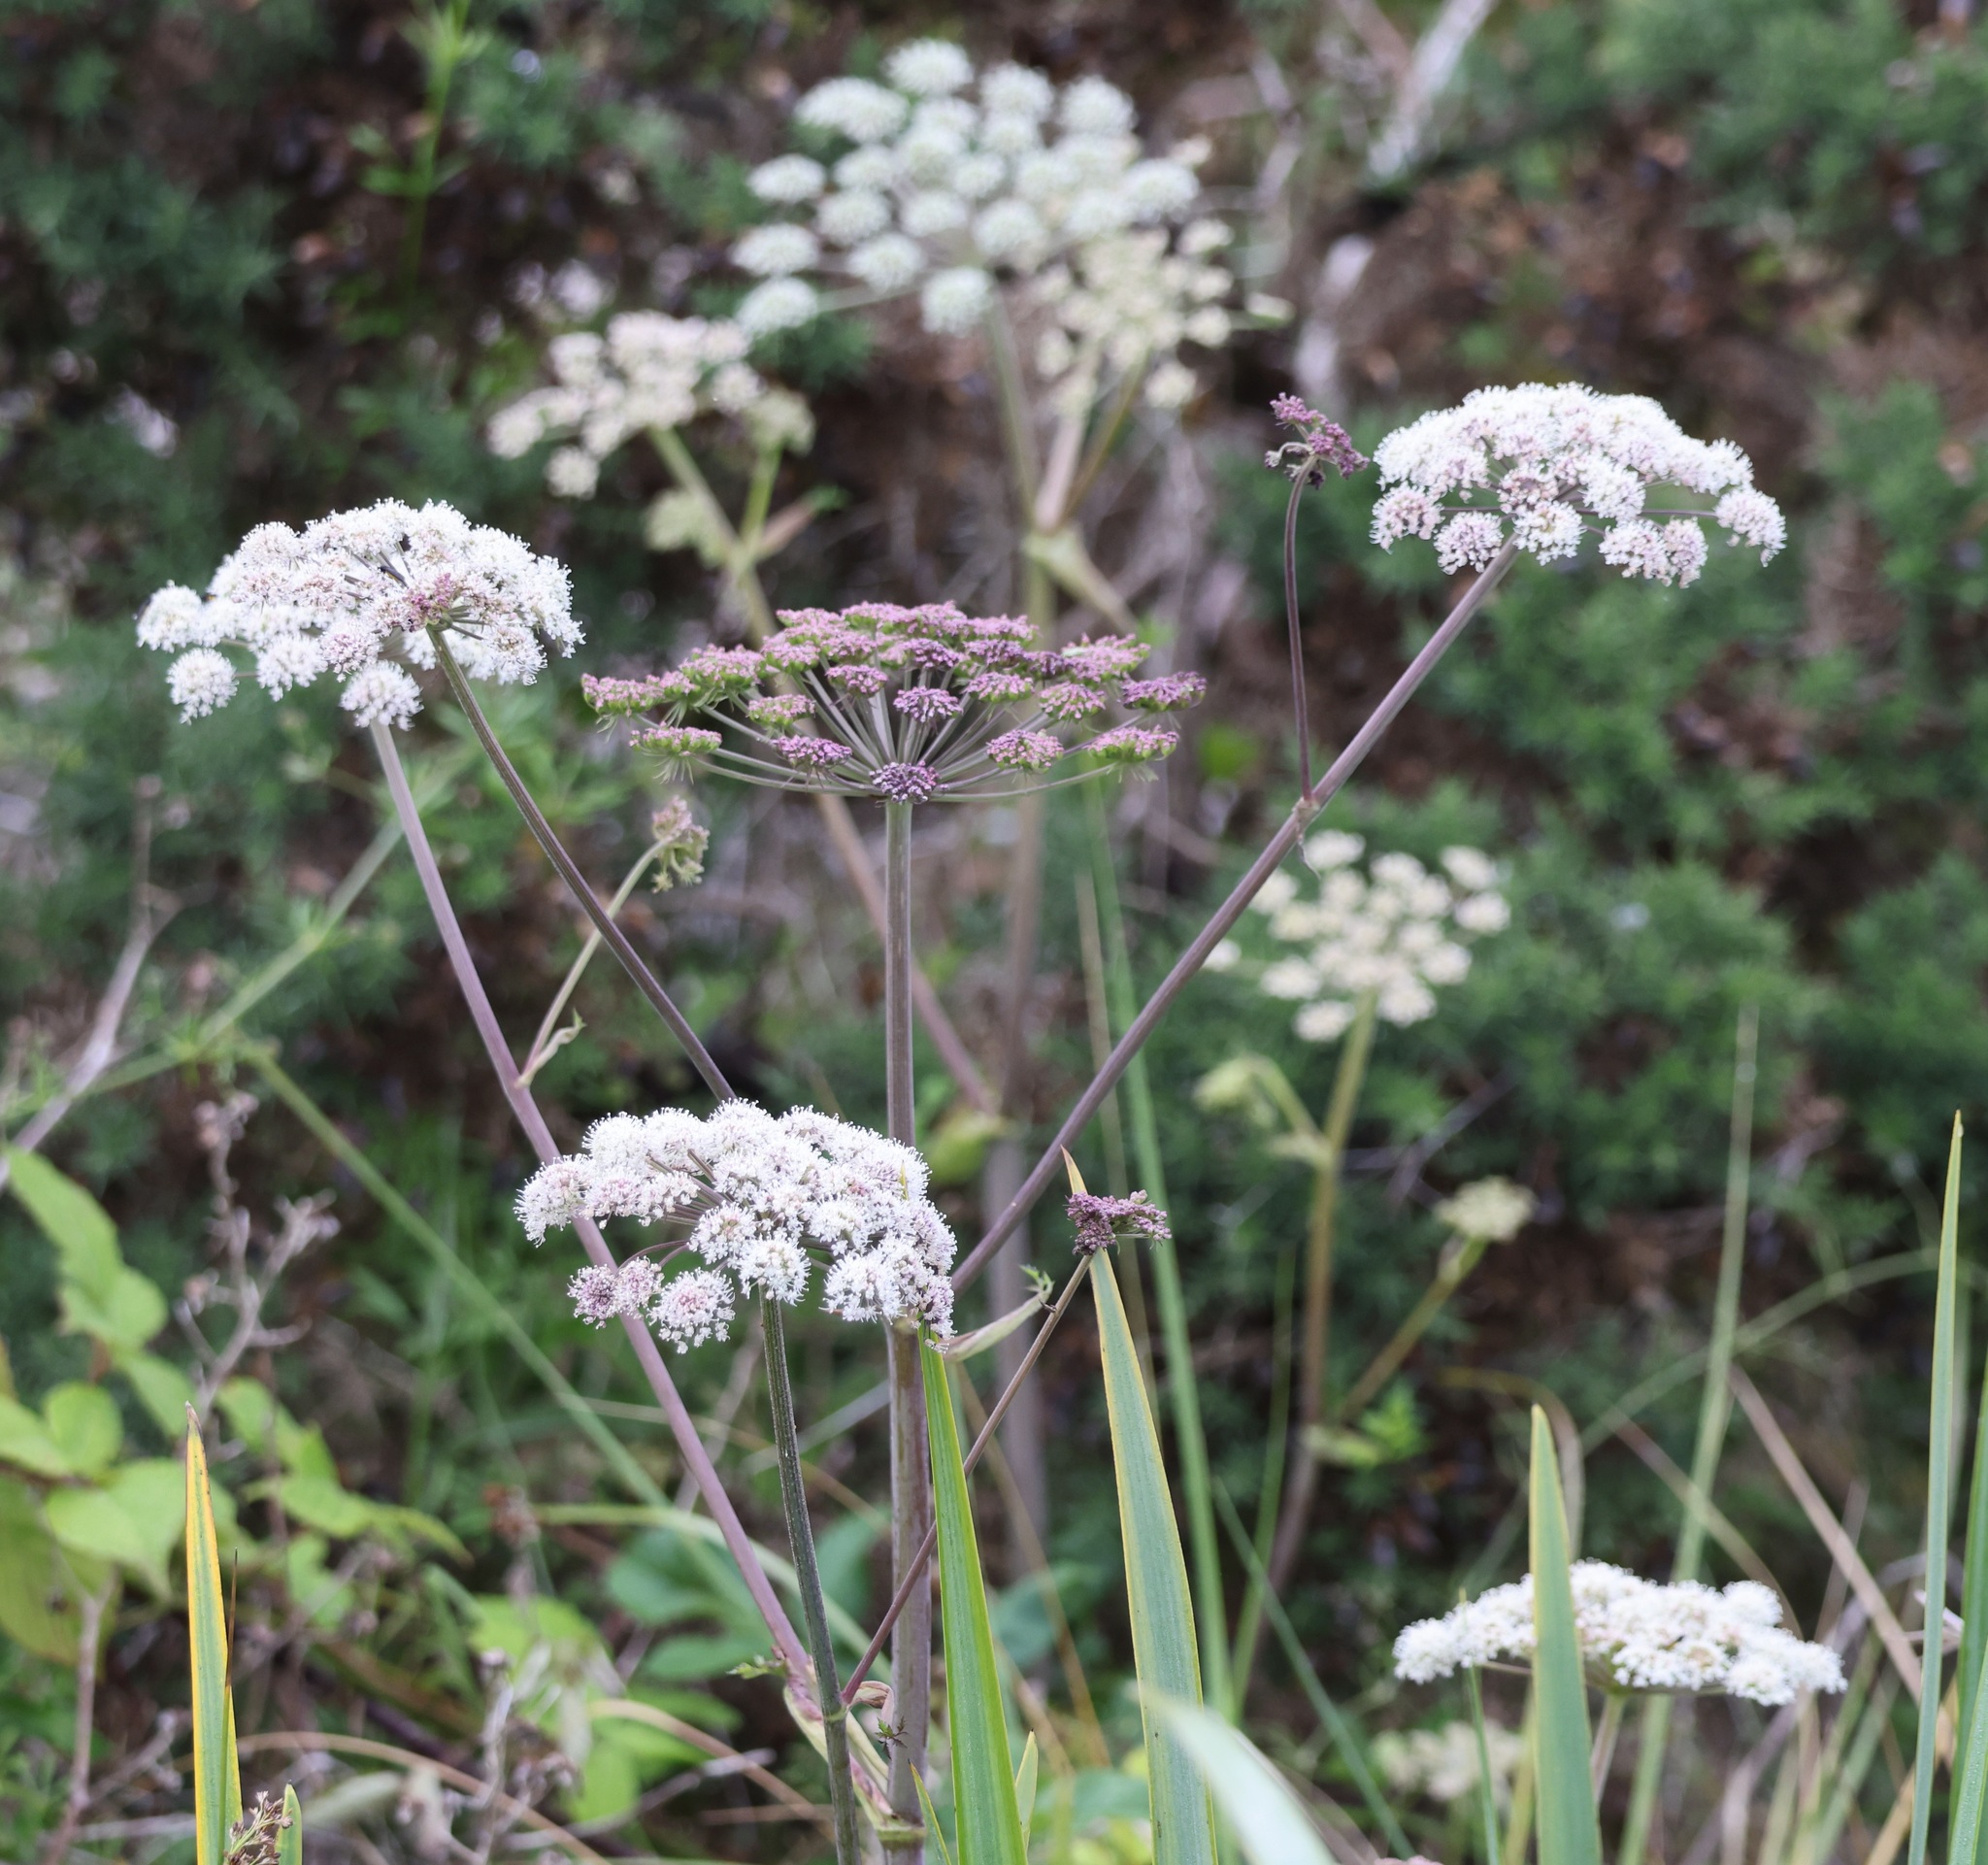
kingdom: Plantae
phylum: Tracheophyta
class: Magnoliopsida
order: Apiales
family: Apiaceae
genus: Angelica
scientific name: Angelica sylvestris
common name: Wild angelica
